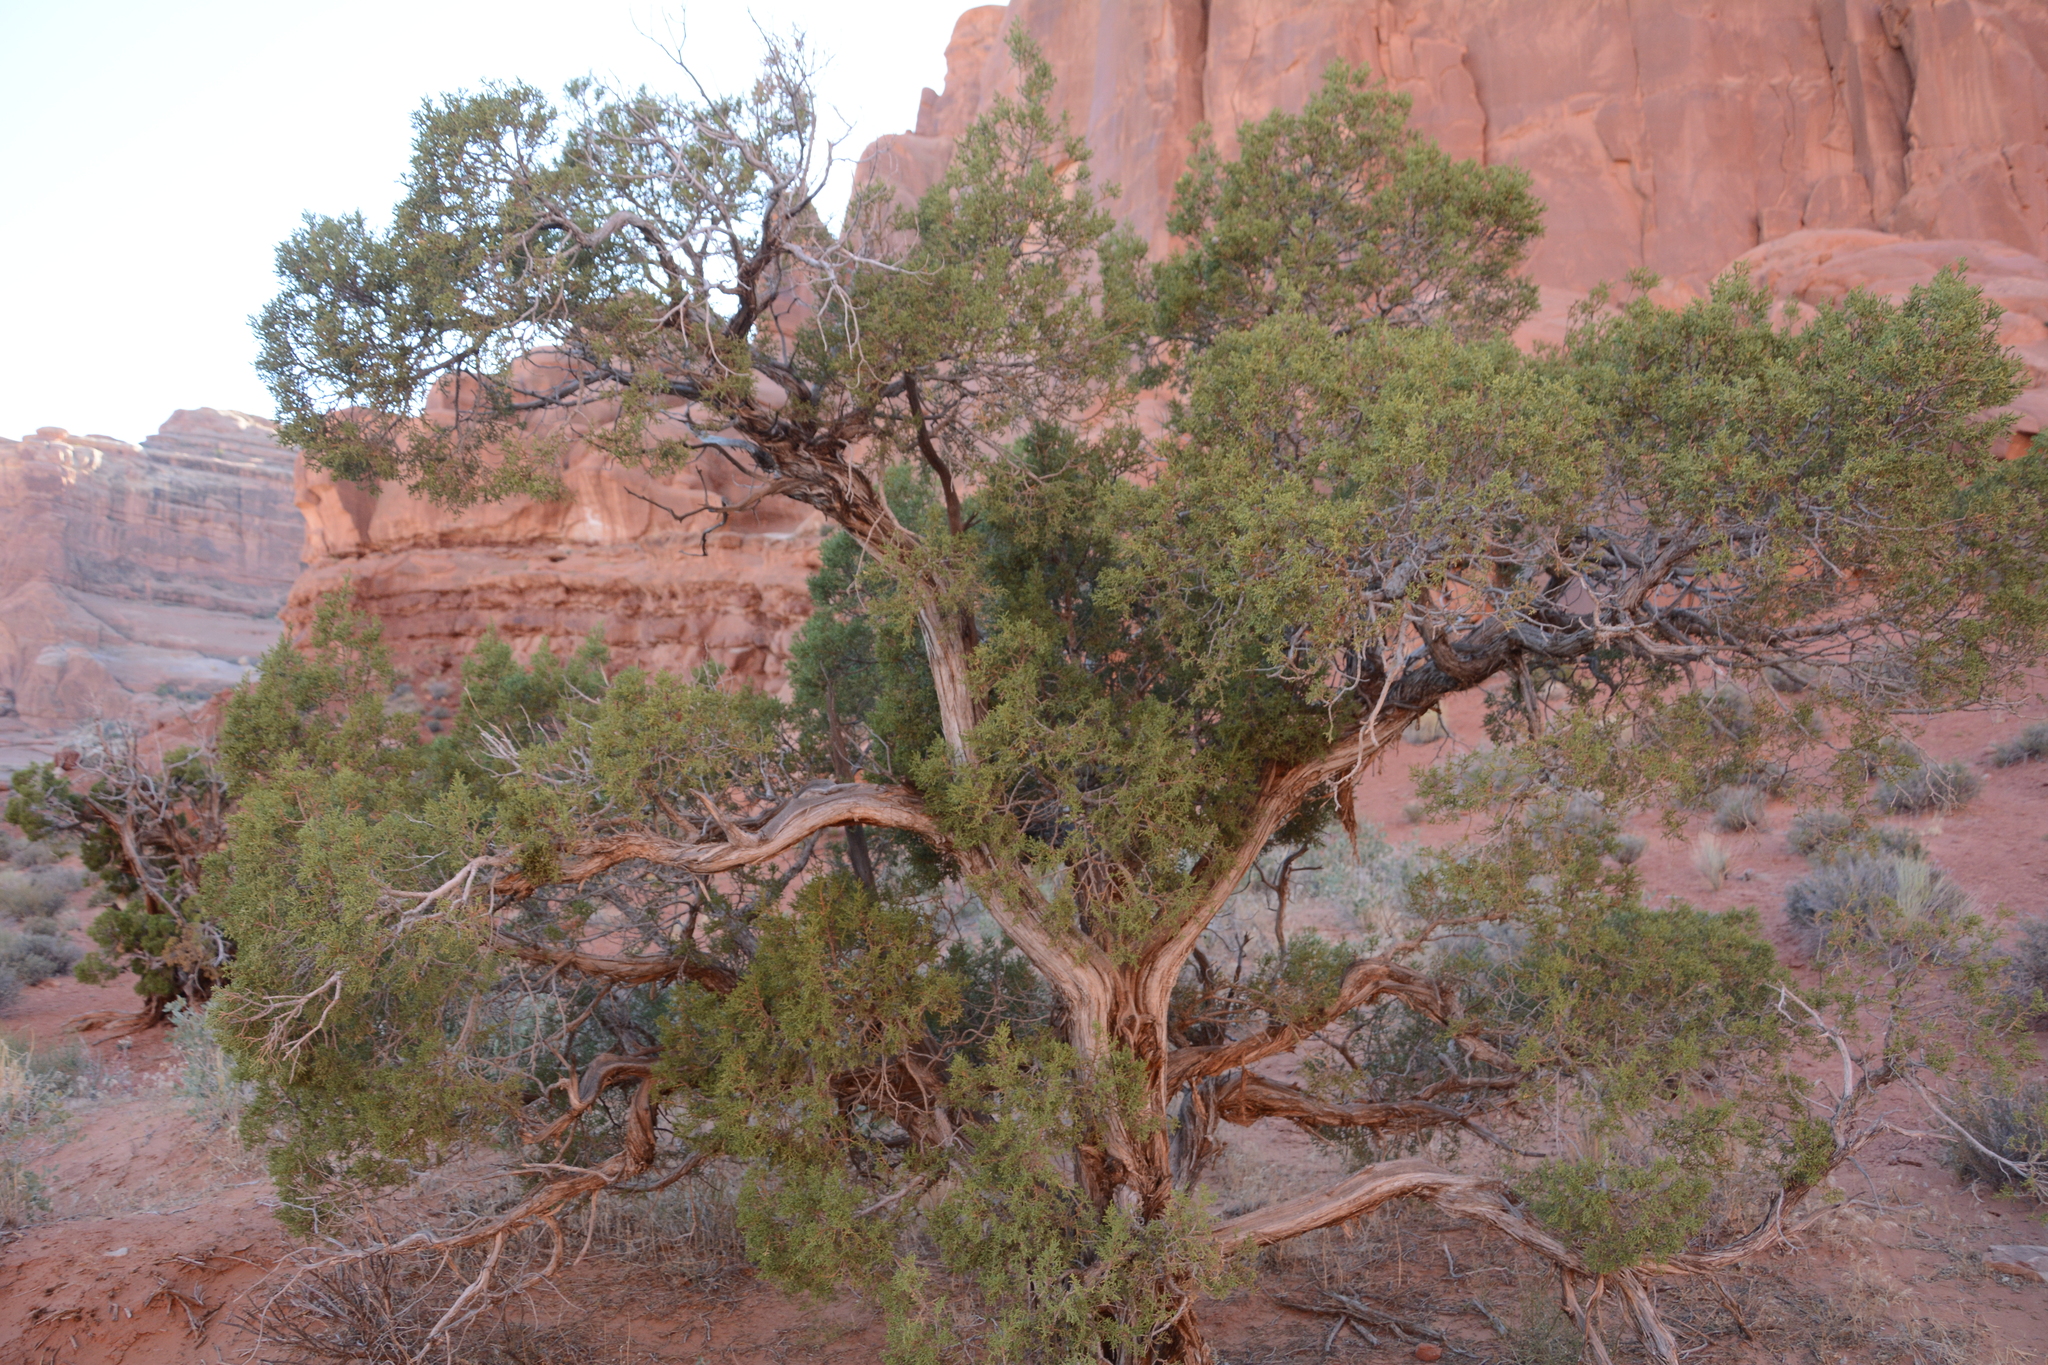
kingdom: Plantae
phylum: Tracheophyta
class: Pinopsida
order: Pinales
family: Cupressaceae
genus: Juniperus
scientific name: Juniperus osteosperma
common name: Utah juniper
